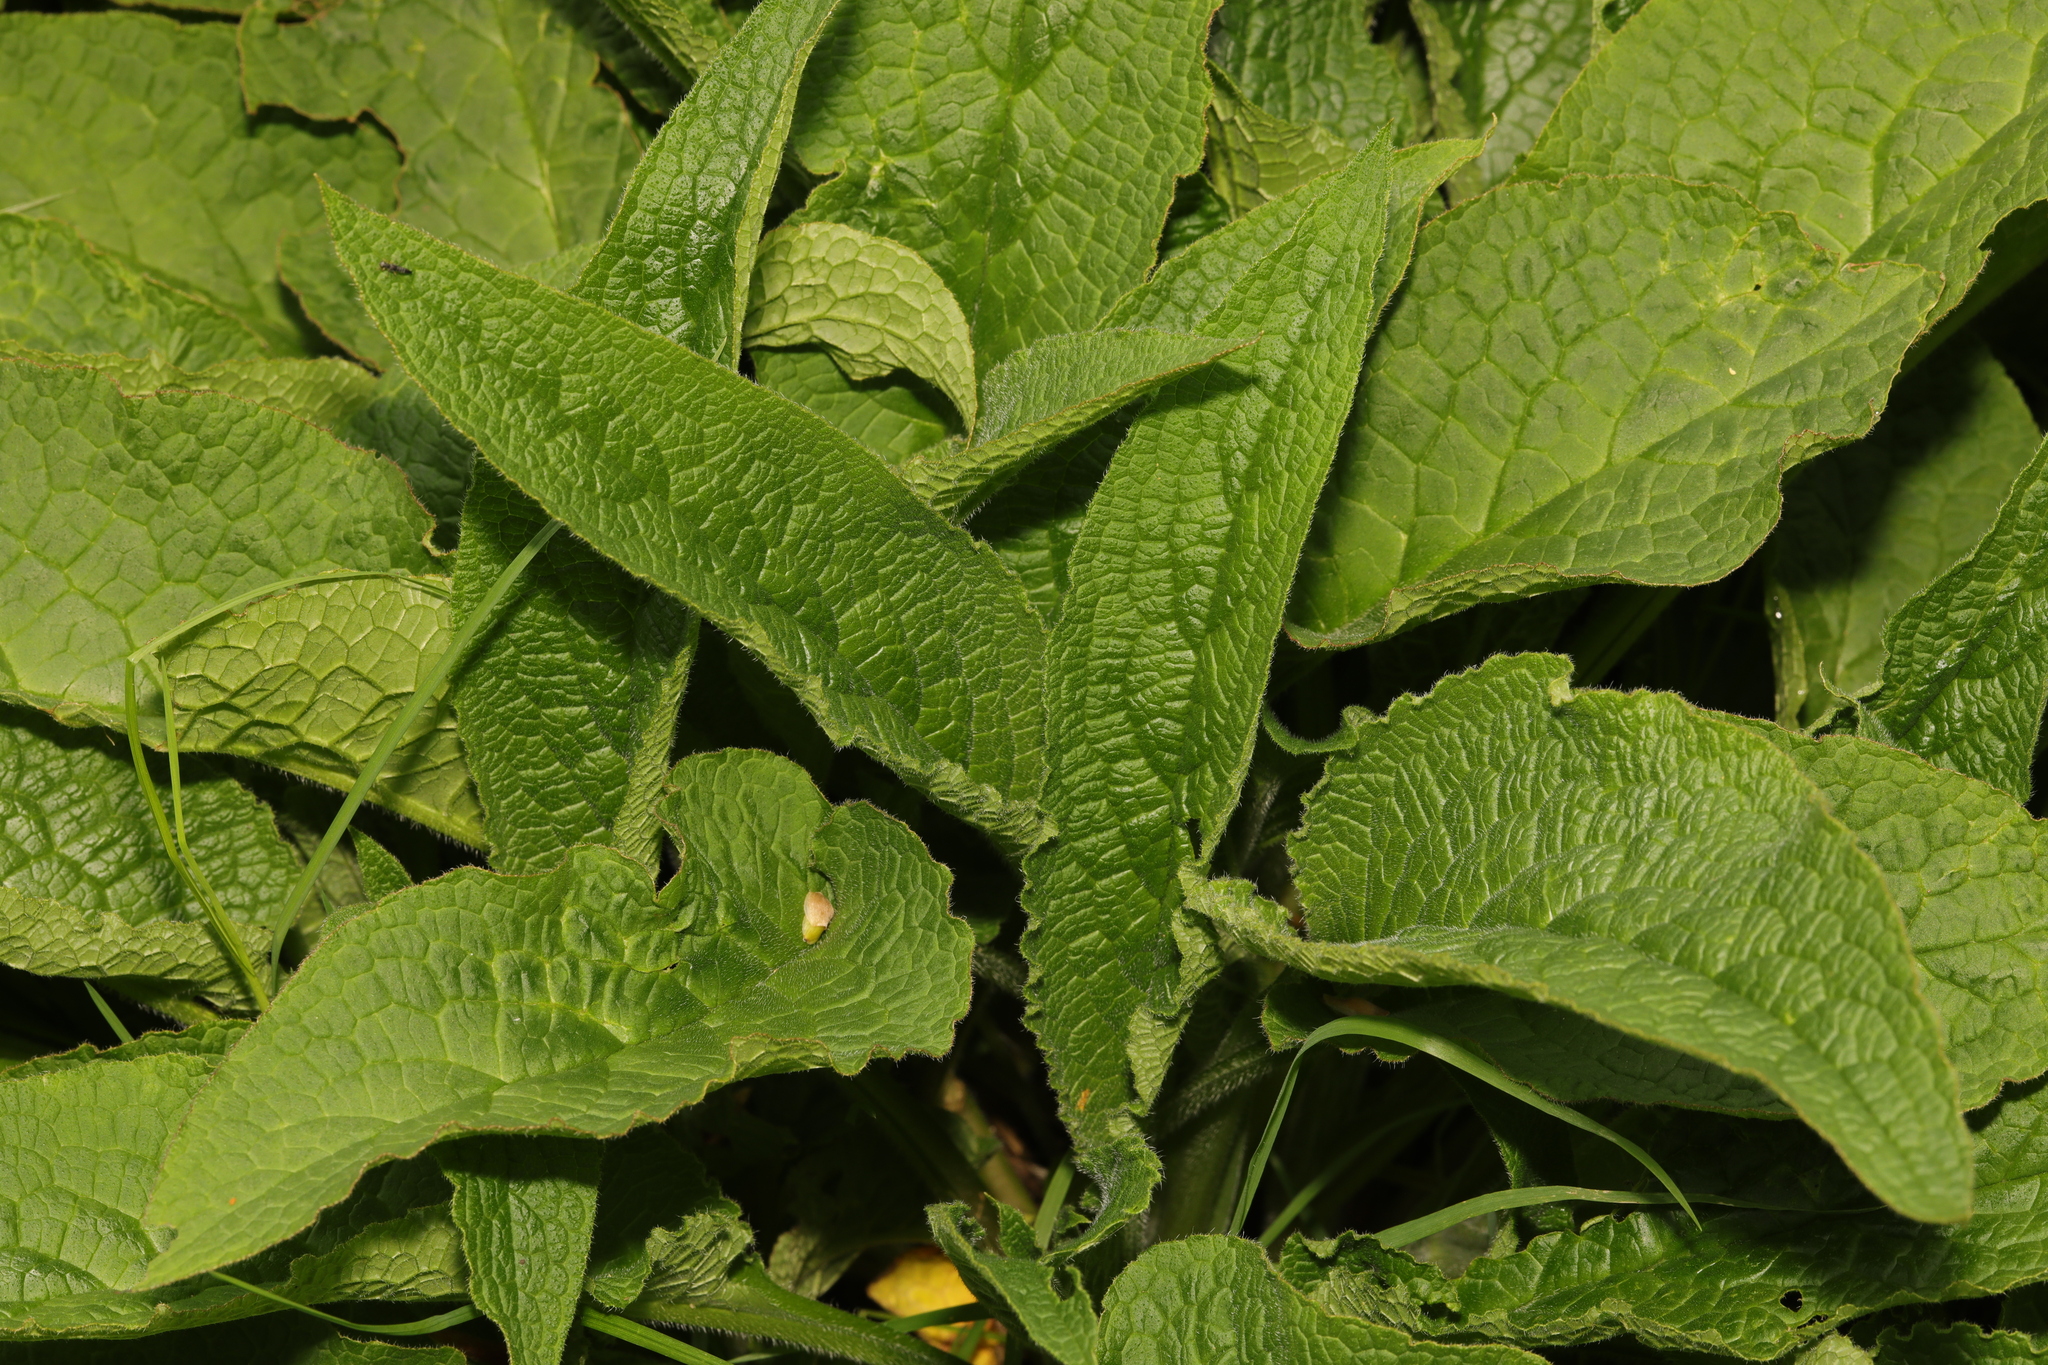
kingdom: Plantae
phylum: Tracheophyta
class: Magnoliopsida
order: Boraginales
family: Boraginaceae
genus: Symphytum
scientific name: Symphytum officinale
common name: Common comfrey
